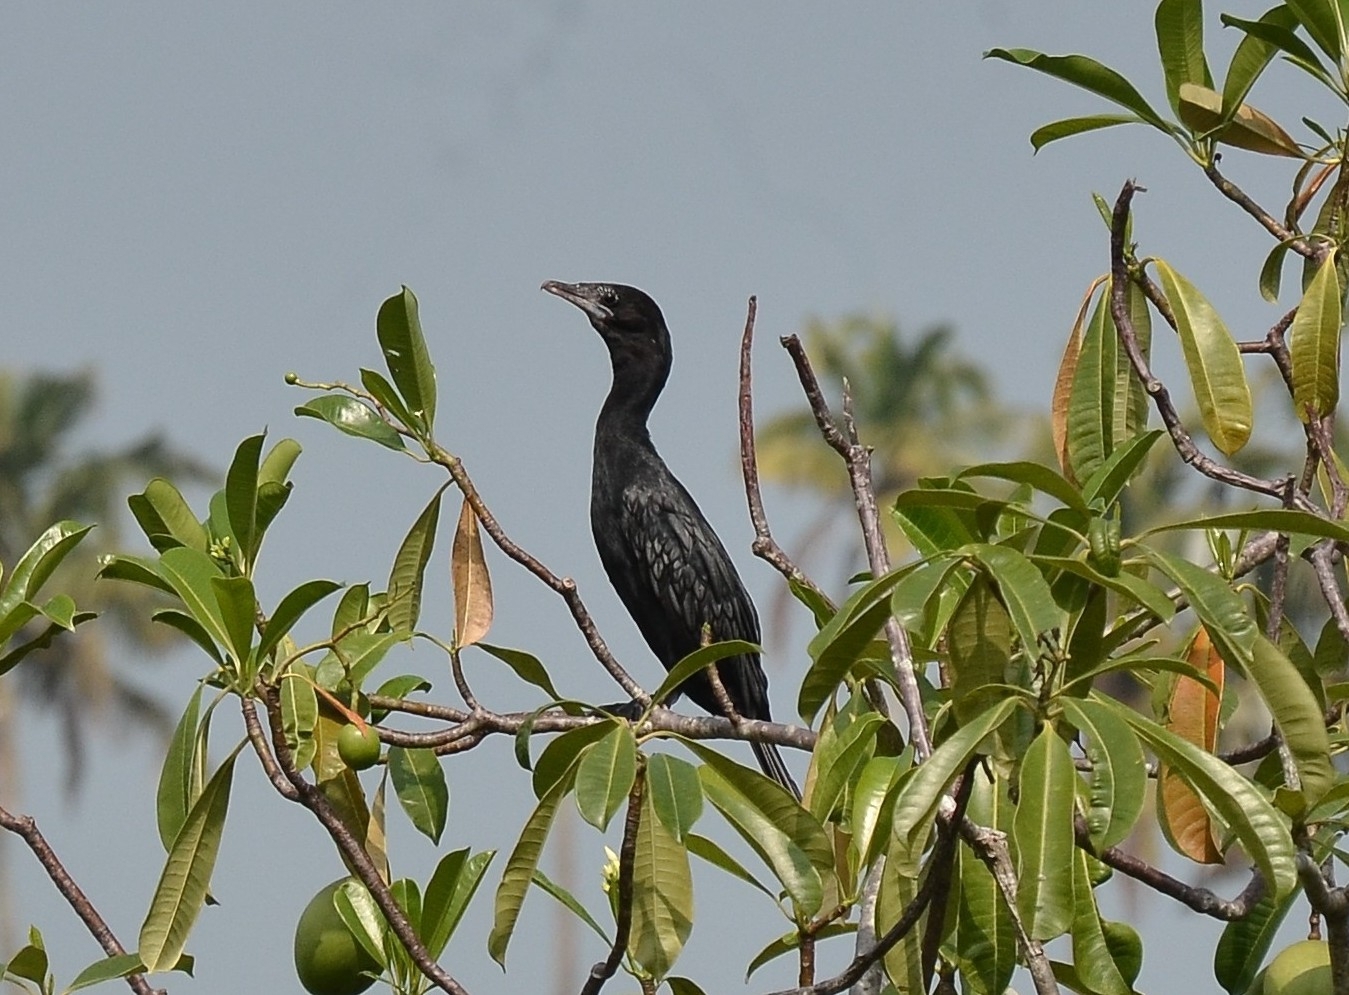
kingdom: Animalia
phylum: Chordata
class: Aves
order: Suliformes
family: Phalacrocoracidae
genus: Microcarbo
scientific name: Microcarbo niger
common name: Little cormorant
